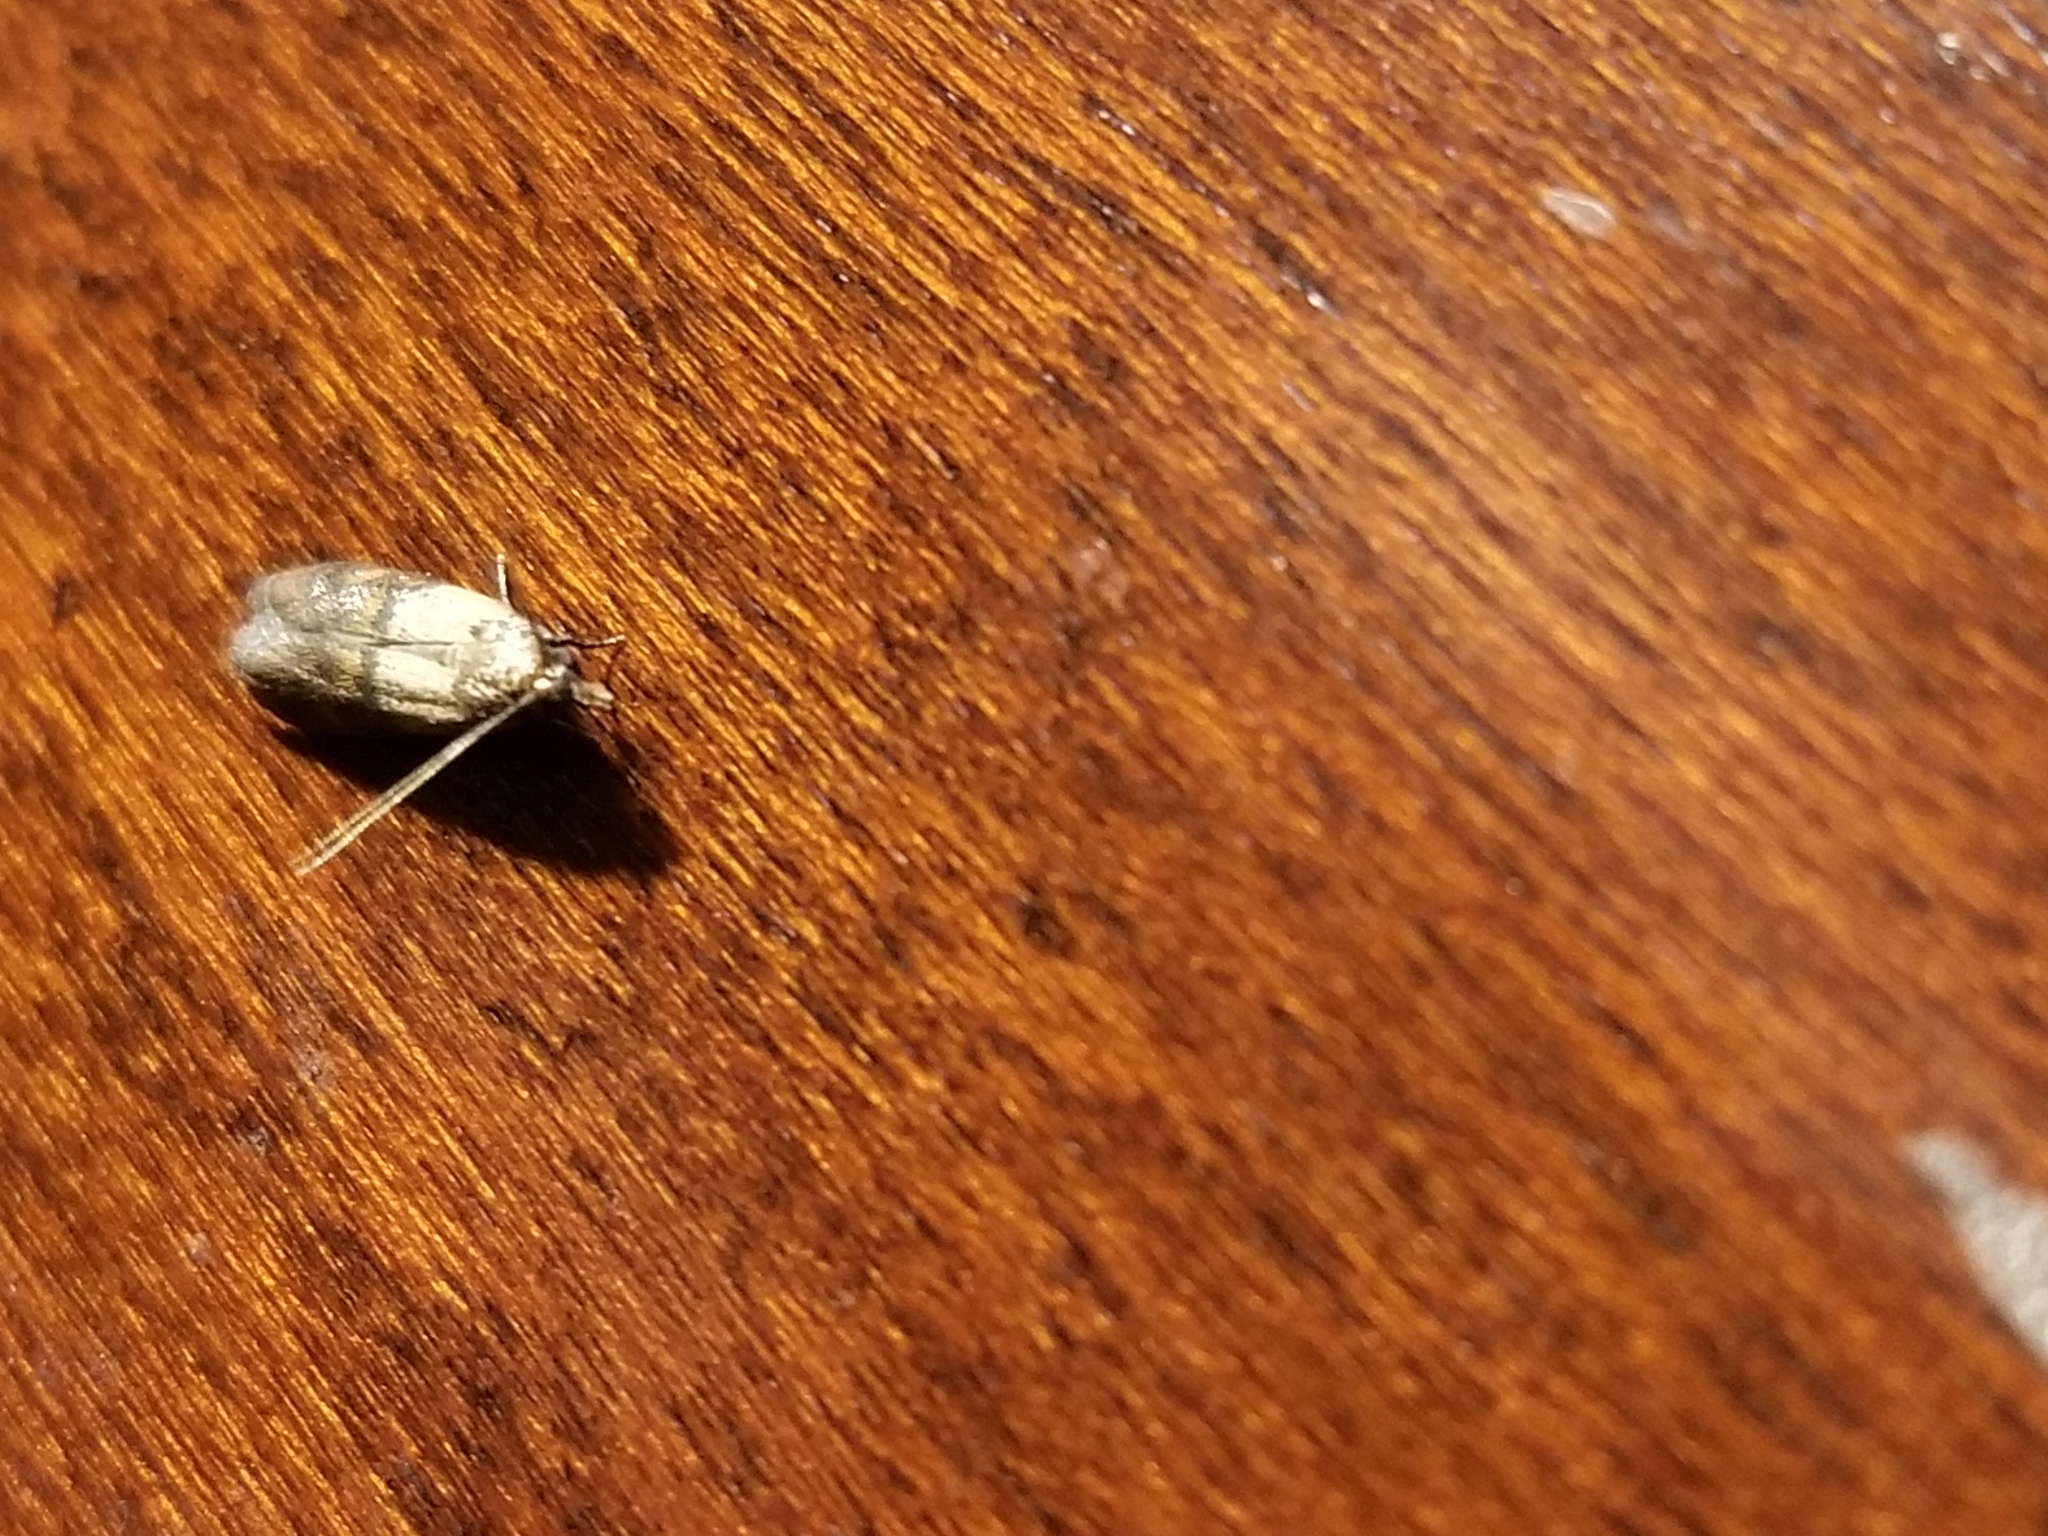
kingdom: Animalia
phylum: Arthropoda
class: Insecta
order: Lepidoptera
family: Pyralidae
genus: Plodia
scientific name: Plodia interpunctella
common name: Indian meal moth
